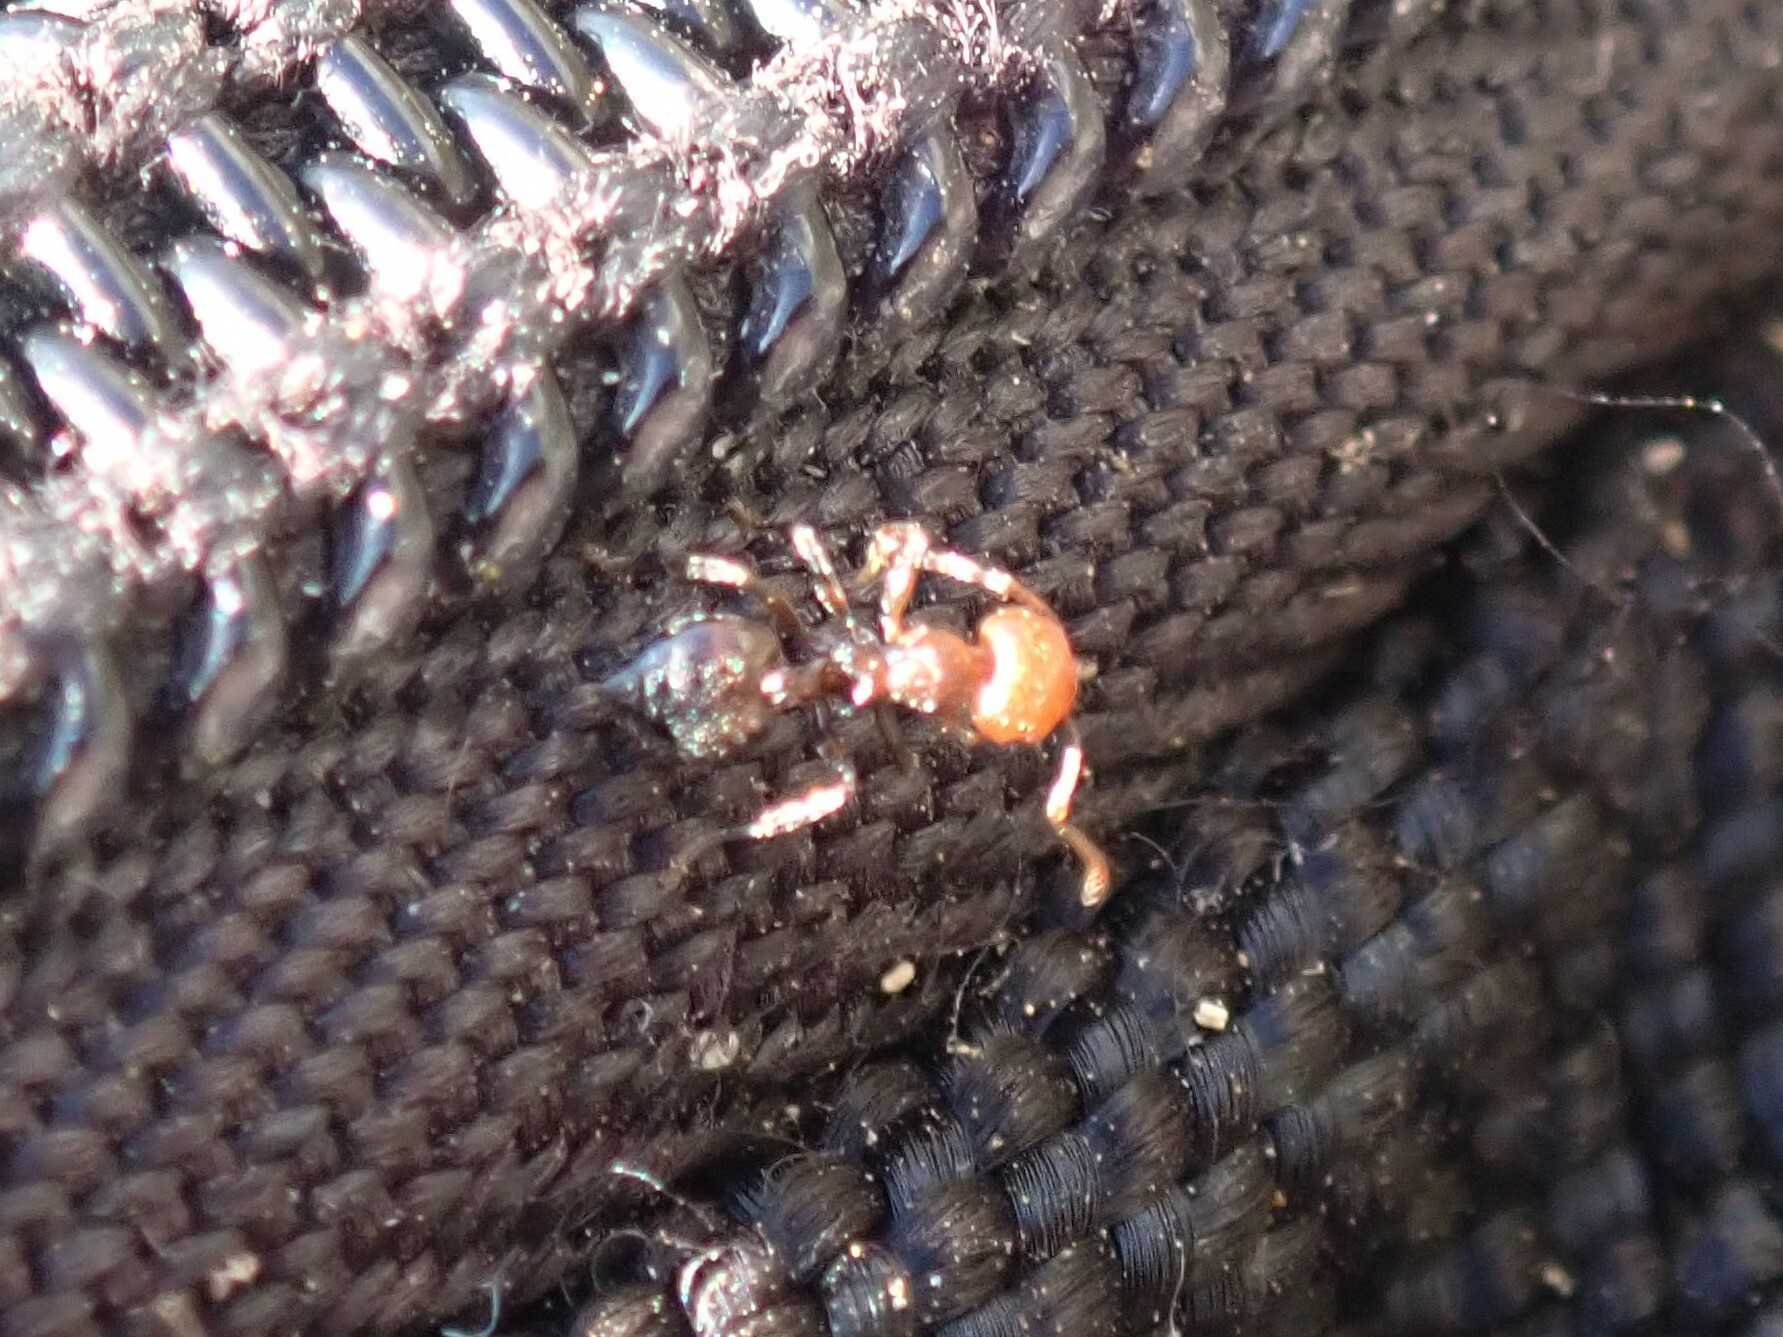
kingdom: Animalia
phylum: Arthropoda
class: Insecta
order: Hymenoptera
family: Formicidae
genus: Crematogaster
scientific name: Crematogaster scutellaris
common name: Fourmi du liège
